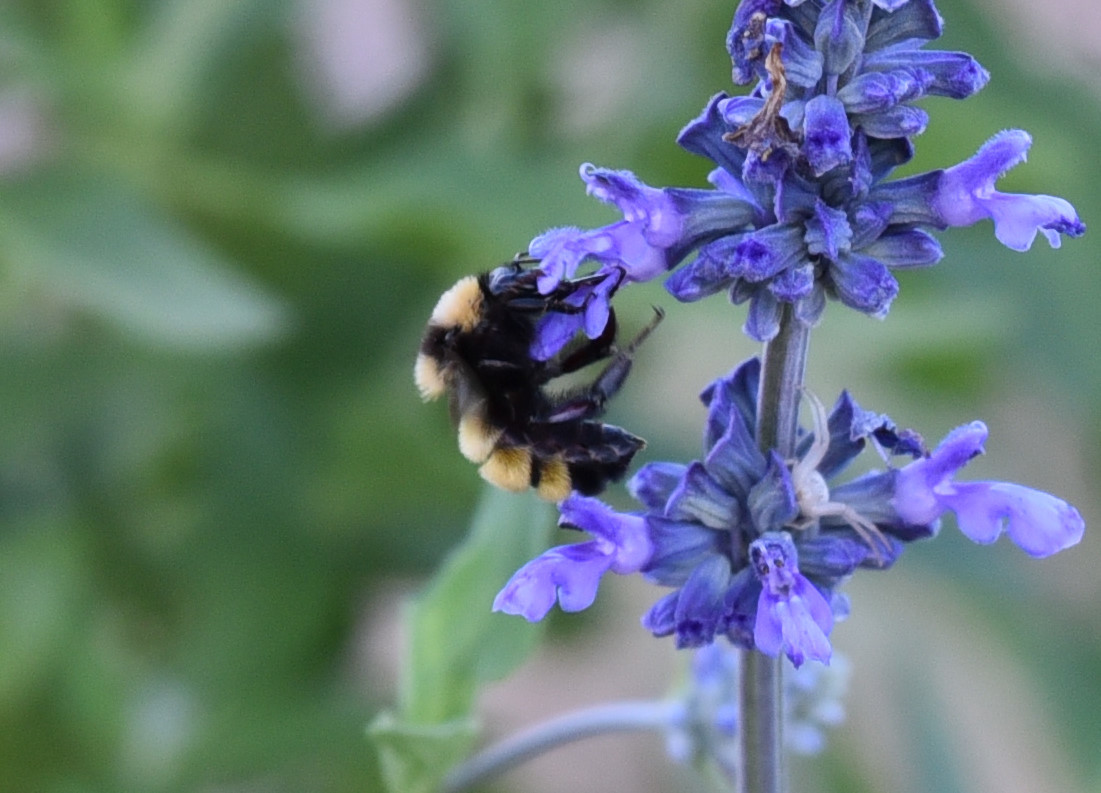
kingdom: Animalia
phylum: Arthropoda
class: Insecta
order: Hymenoptera
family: Apidae
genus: Bombus
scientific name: Bombus sonorus
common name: Sonoran bumble bee
